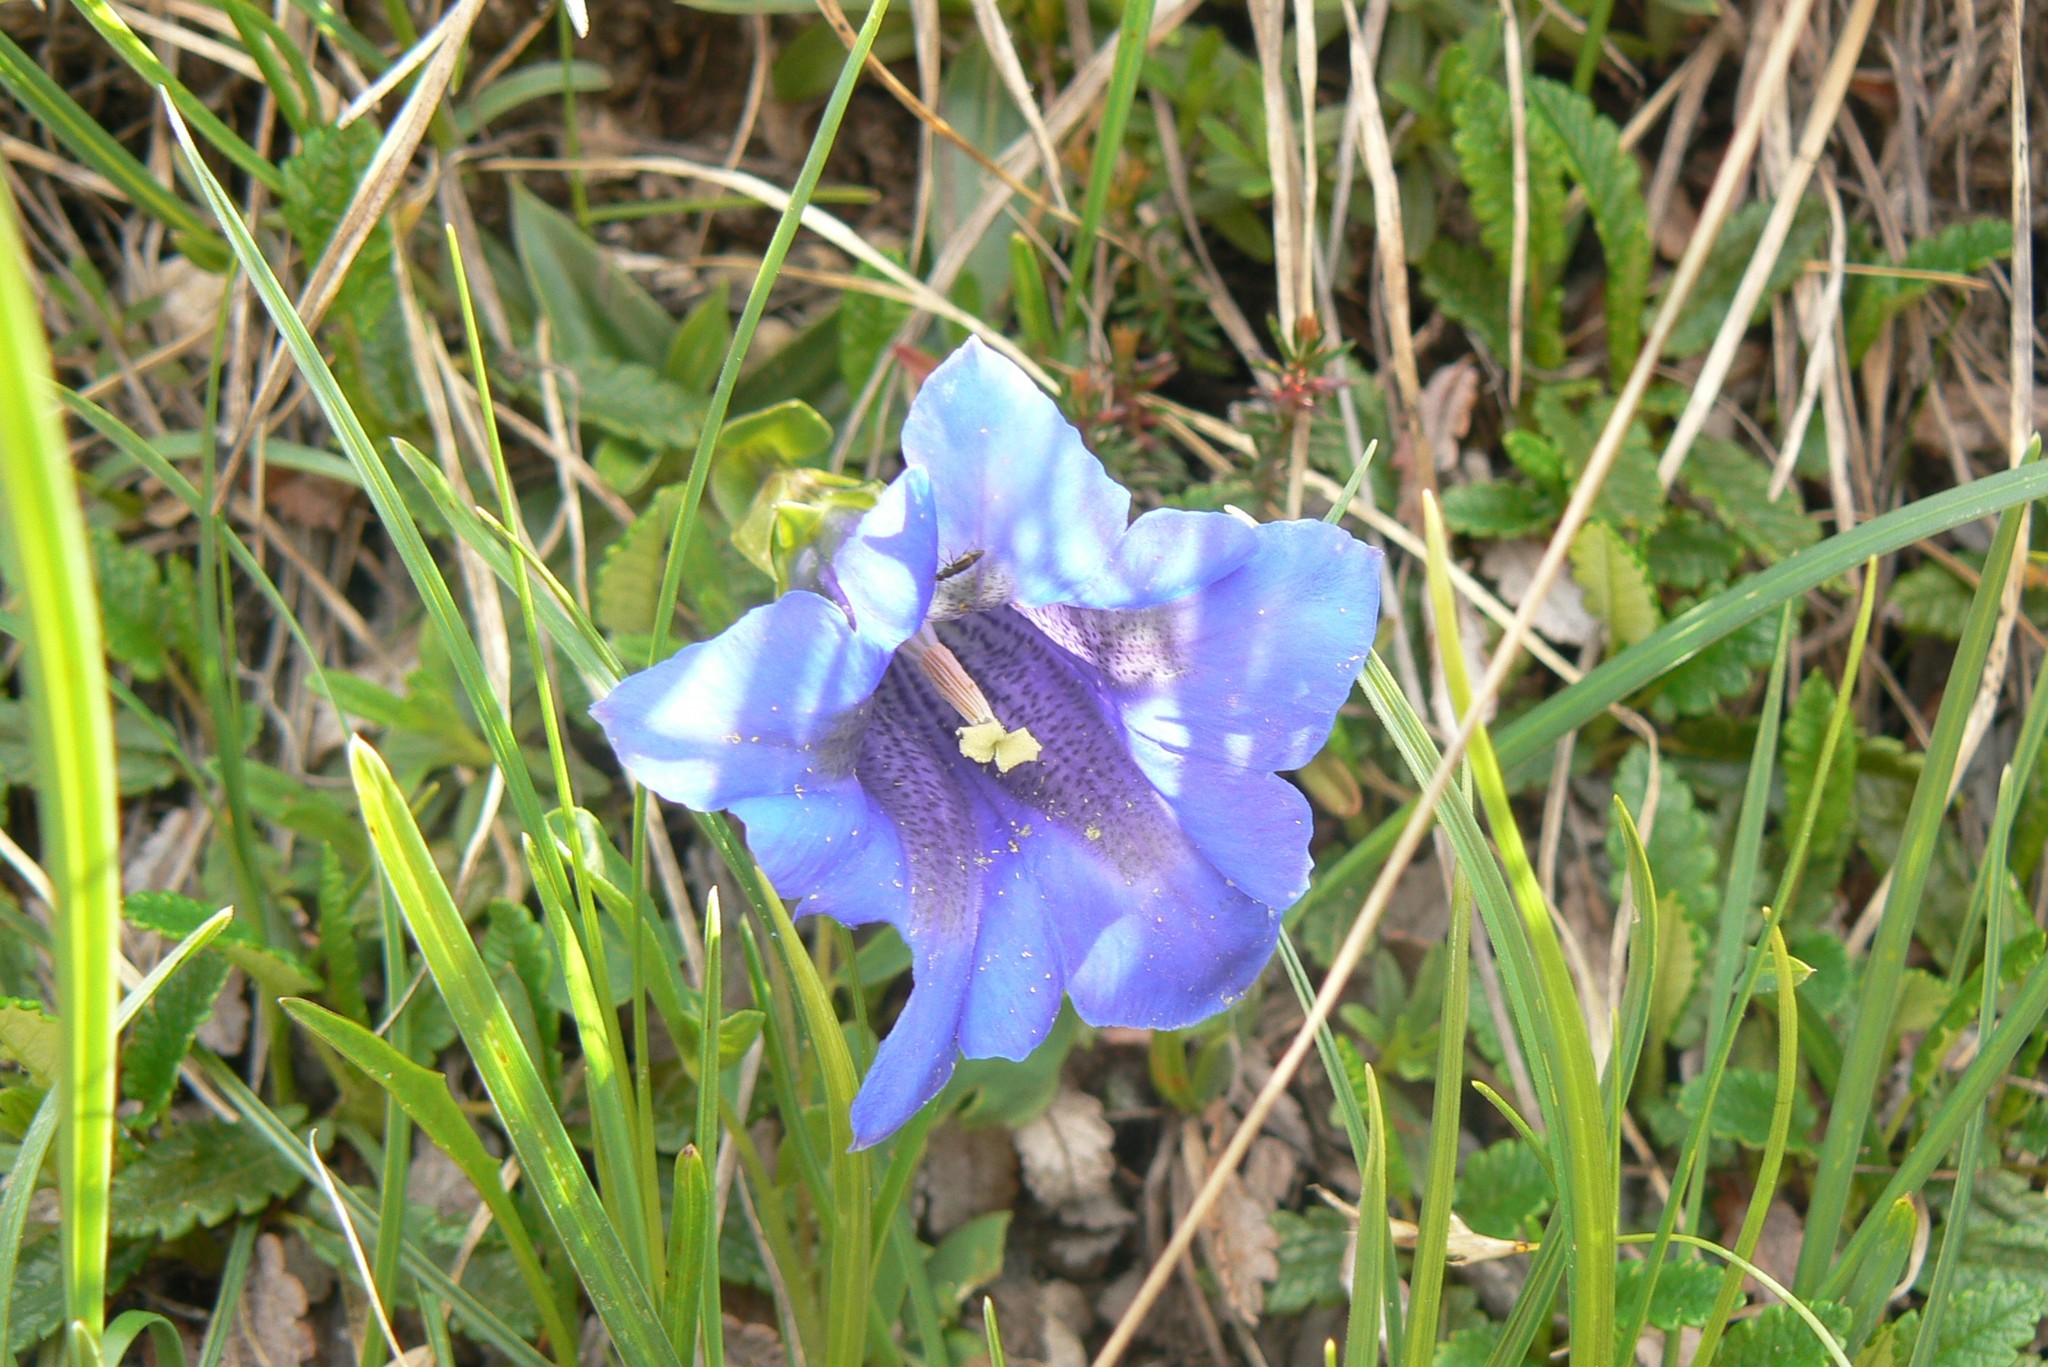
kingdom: Plantae
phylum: Tracheophyta
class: Magnoliopsida
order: Gentianales
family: Gentianaceae
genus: Gentiana
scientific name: Gentiana clusii
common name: Trumpet gentian
